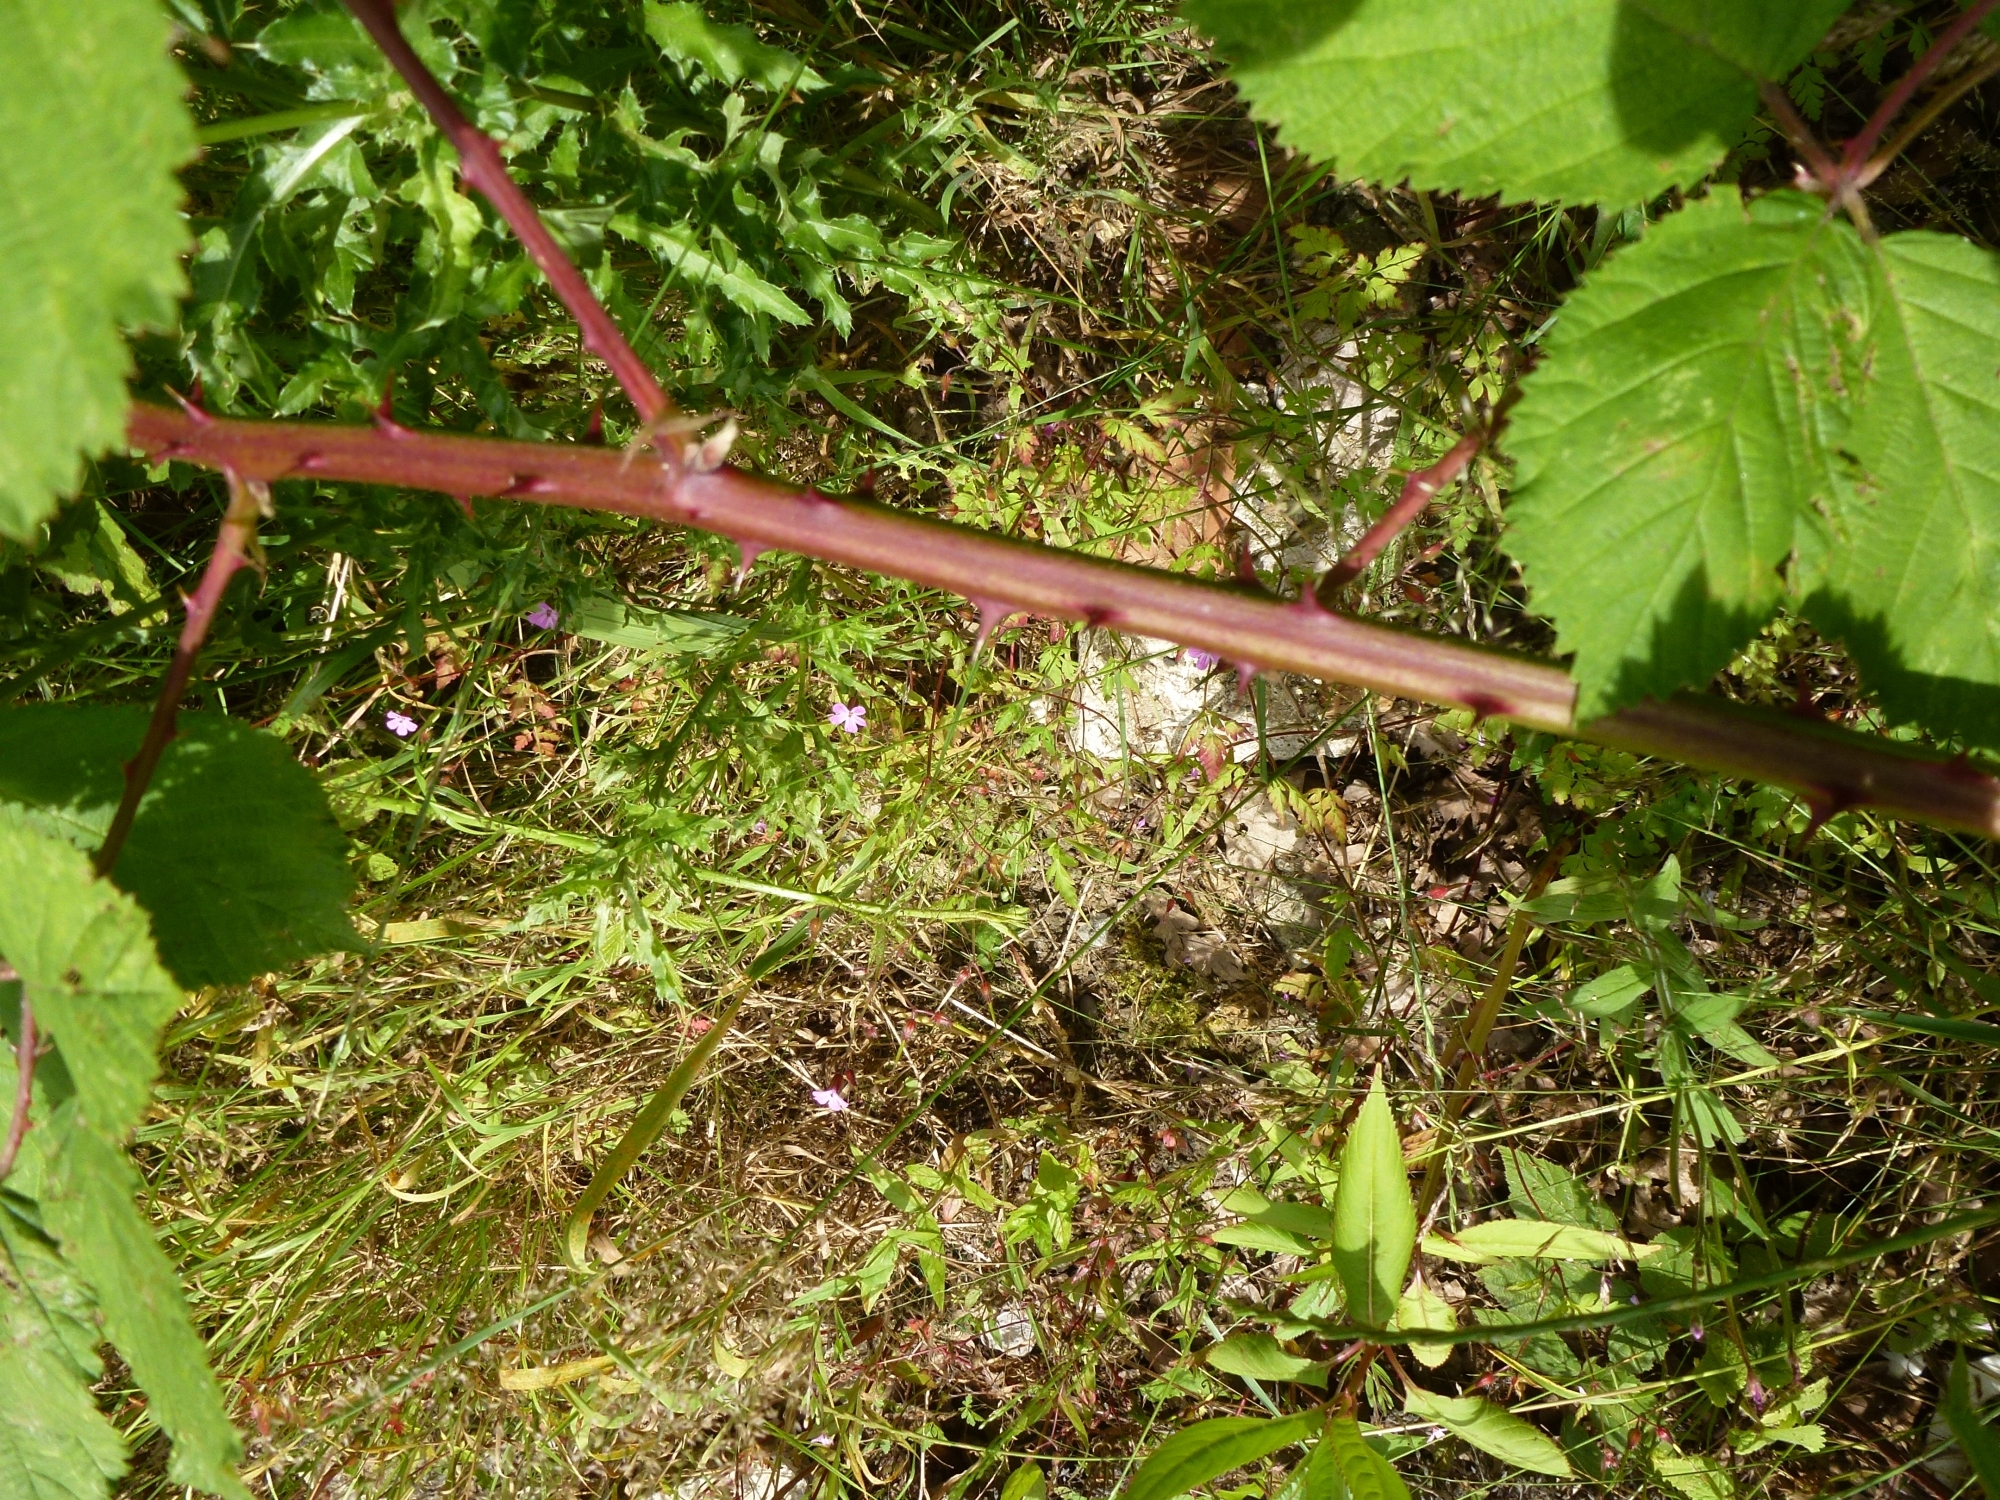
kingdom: Plantae
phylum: Tracheophyta
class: Magnoliopsida
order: Rosales
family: Rosaceae
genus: Rubus
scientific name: Rubus armeniacus
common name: Himalayan blackberry
